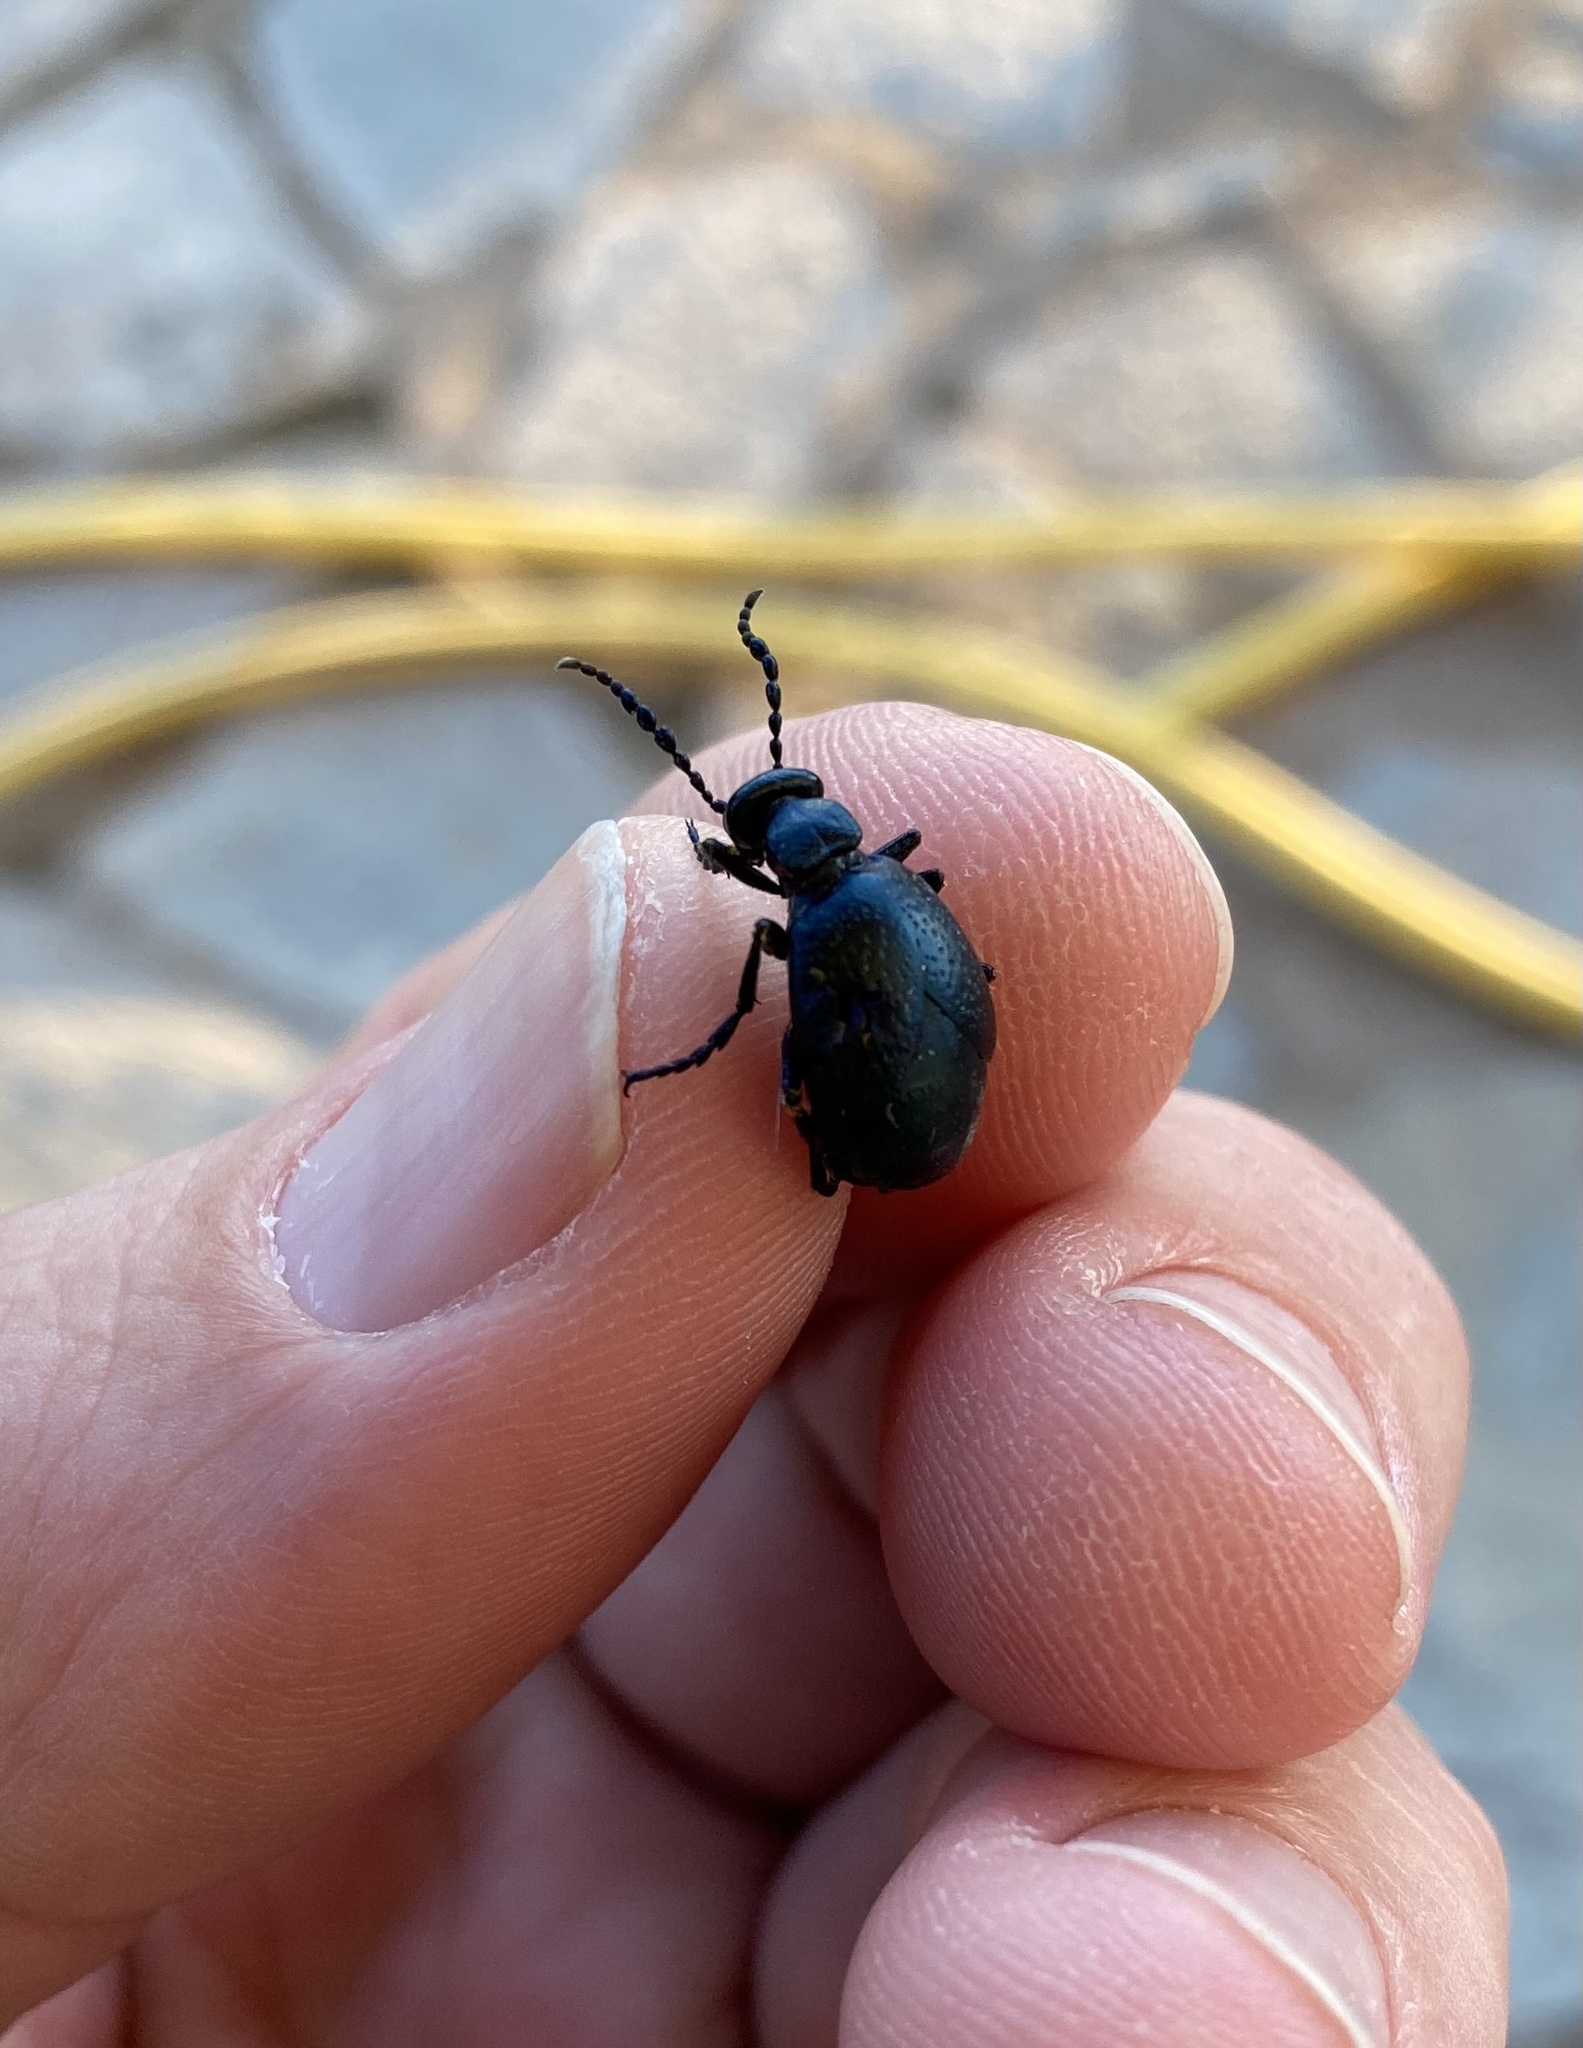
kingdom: Animalia
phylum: Arthropoda
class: Insecta
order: Coleoptera
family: Meloidae
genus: Meloe
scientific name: Meloe autumnalis
